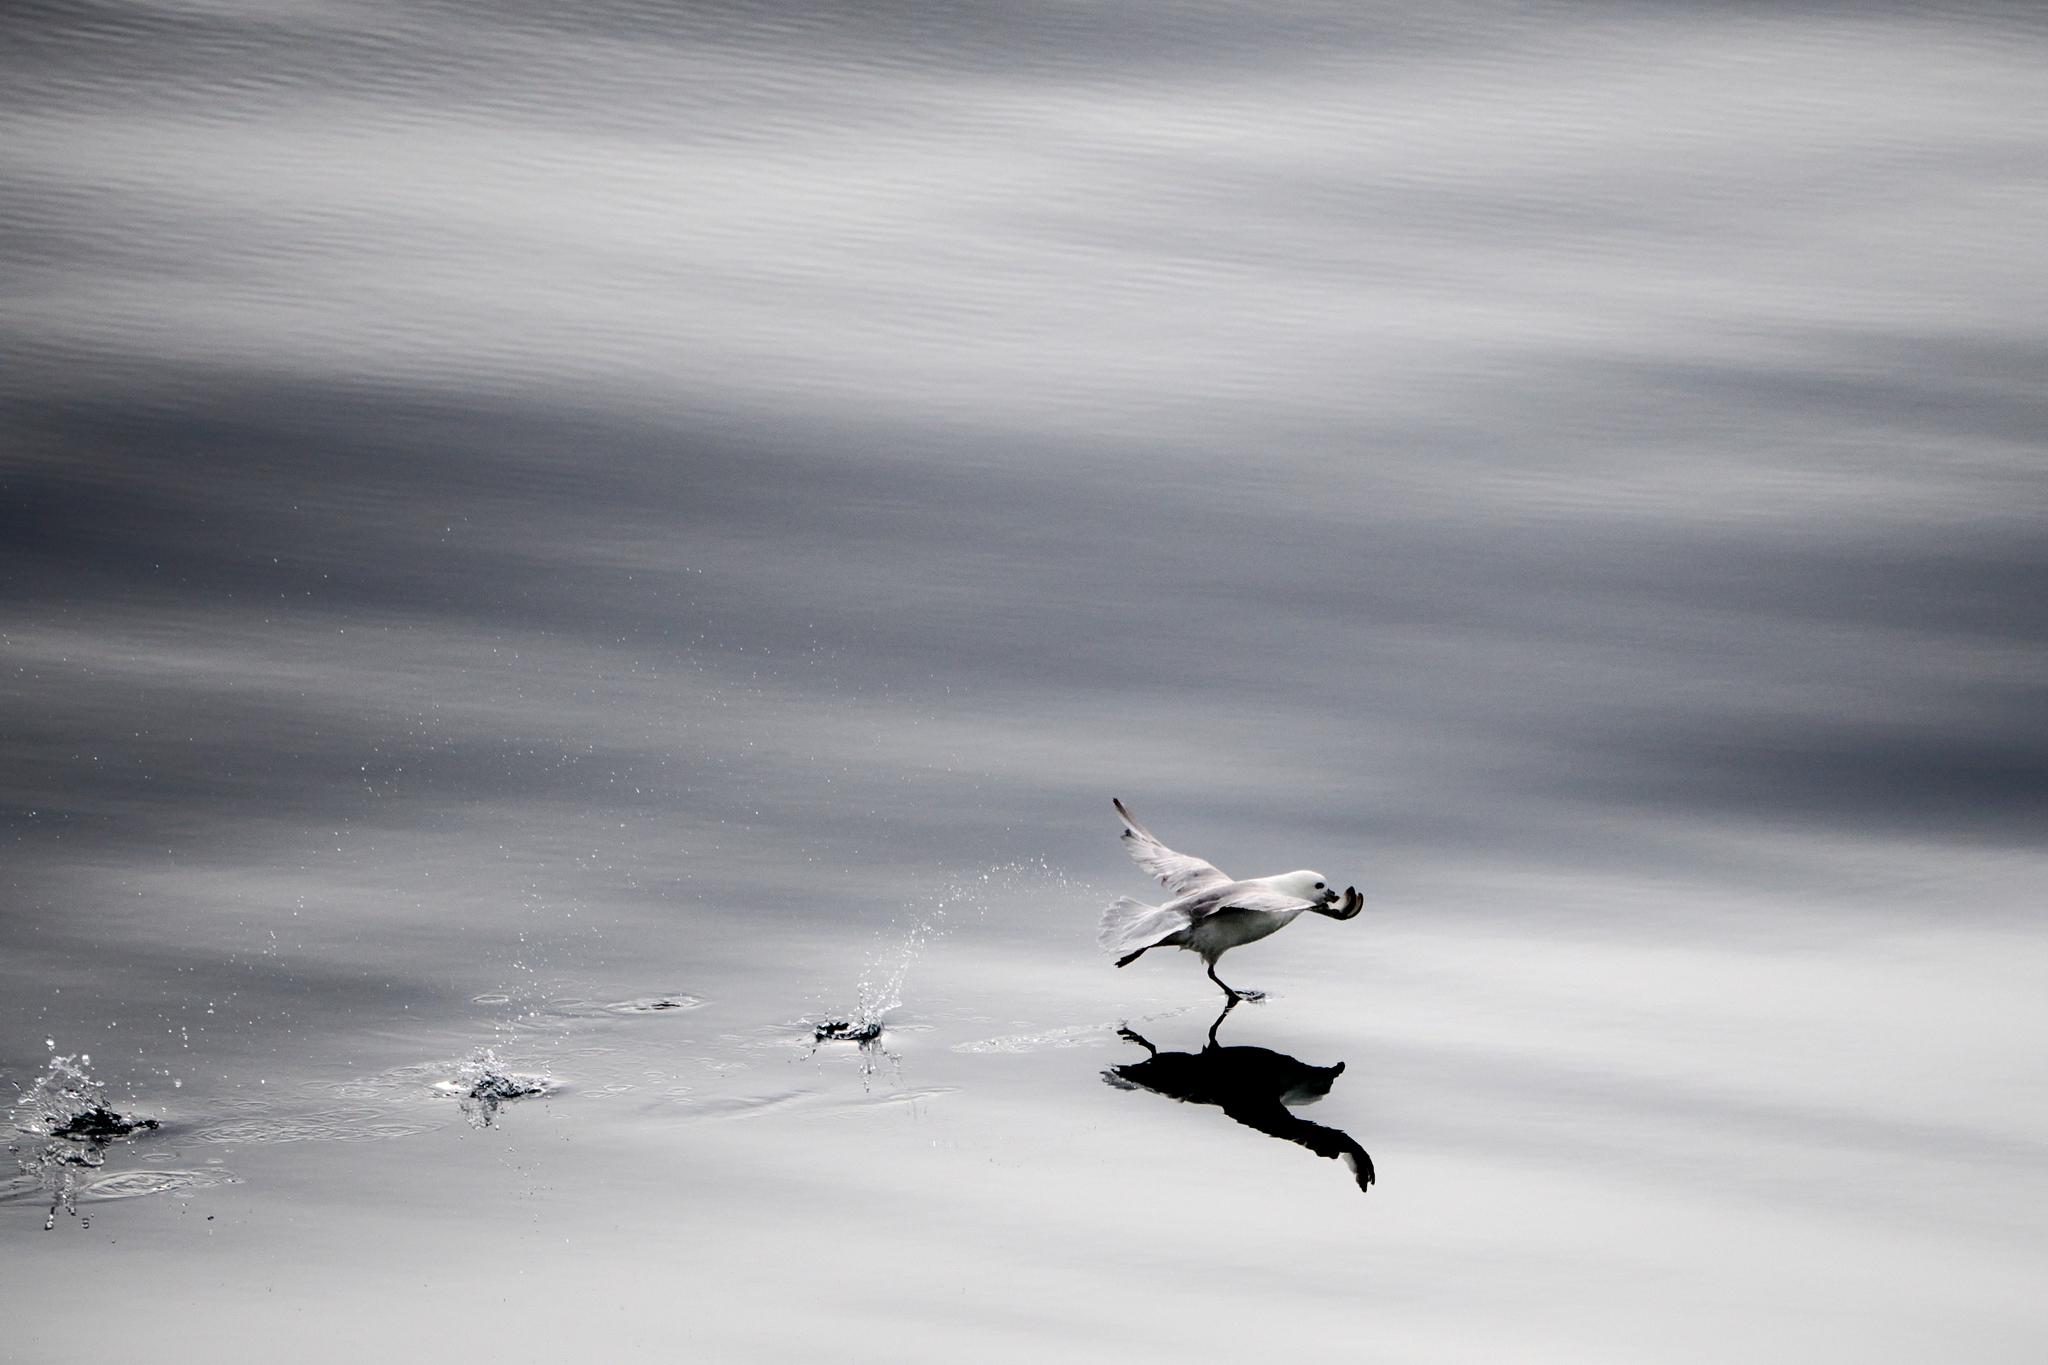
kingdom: Animalia
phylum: Chordata
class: Aves
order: Procellariiformes
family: Procellariidae
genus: Fulmarus
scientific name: Fulmarus glacialis
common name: Northern fulmar
